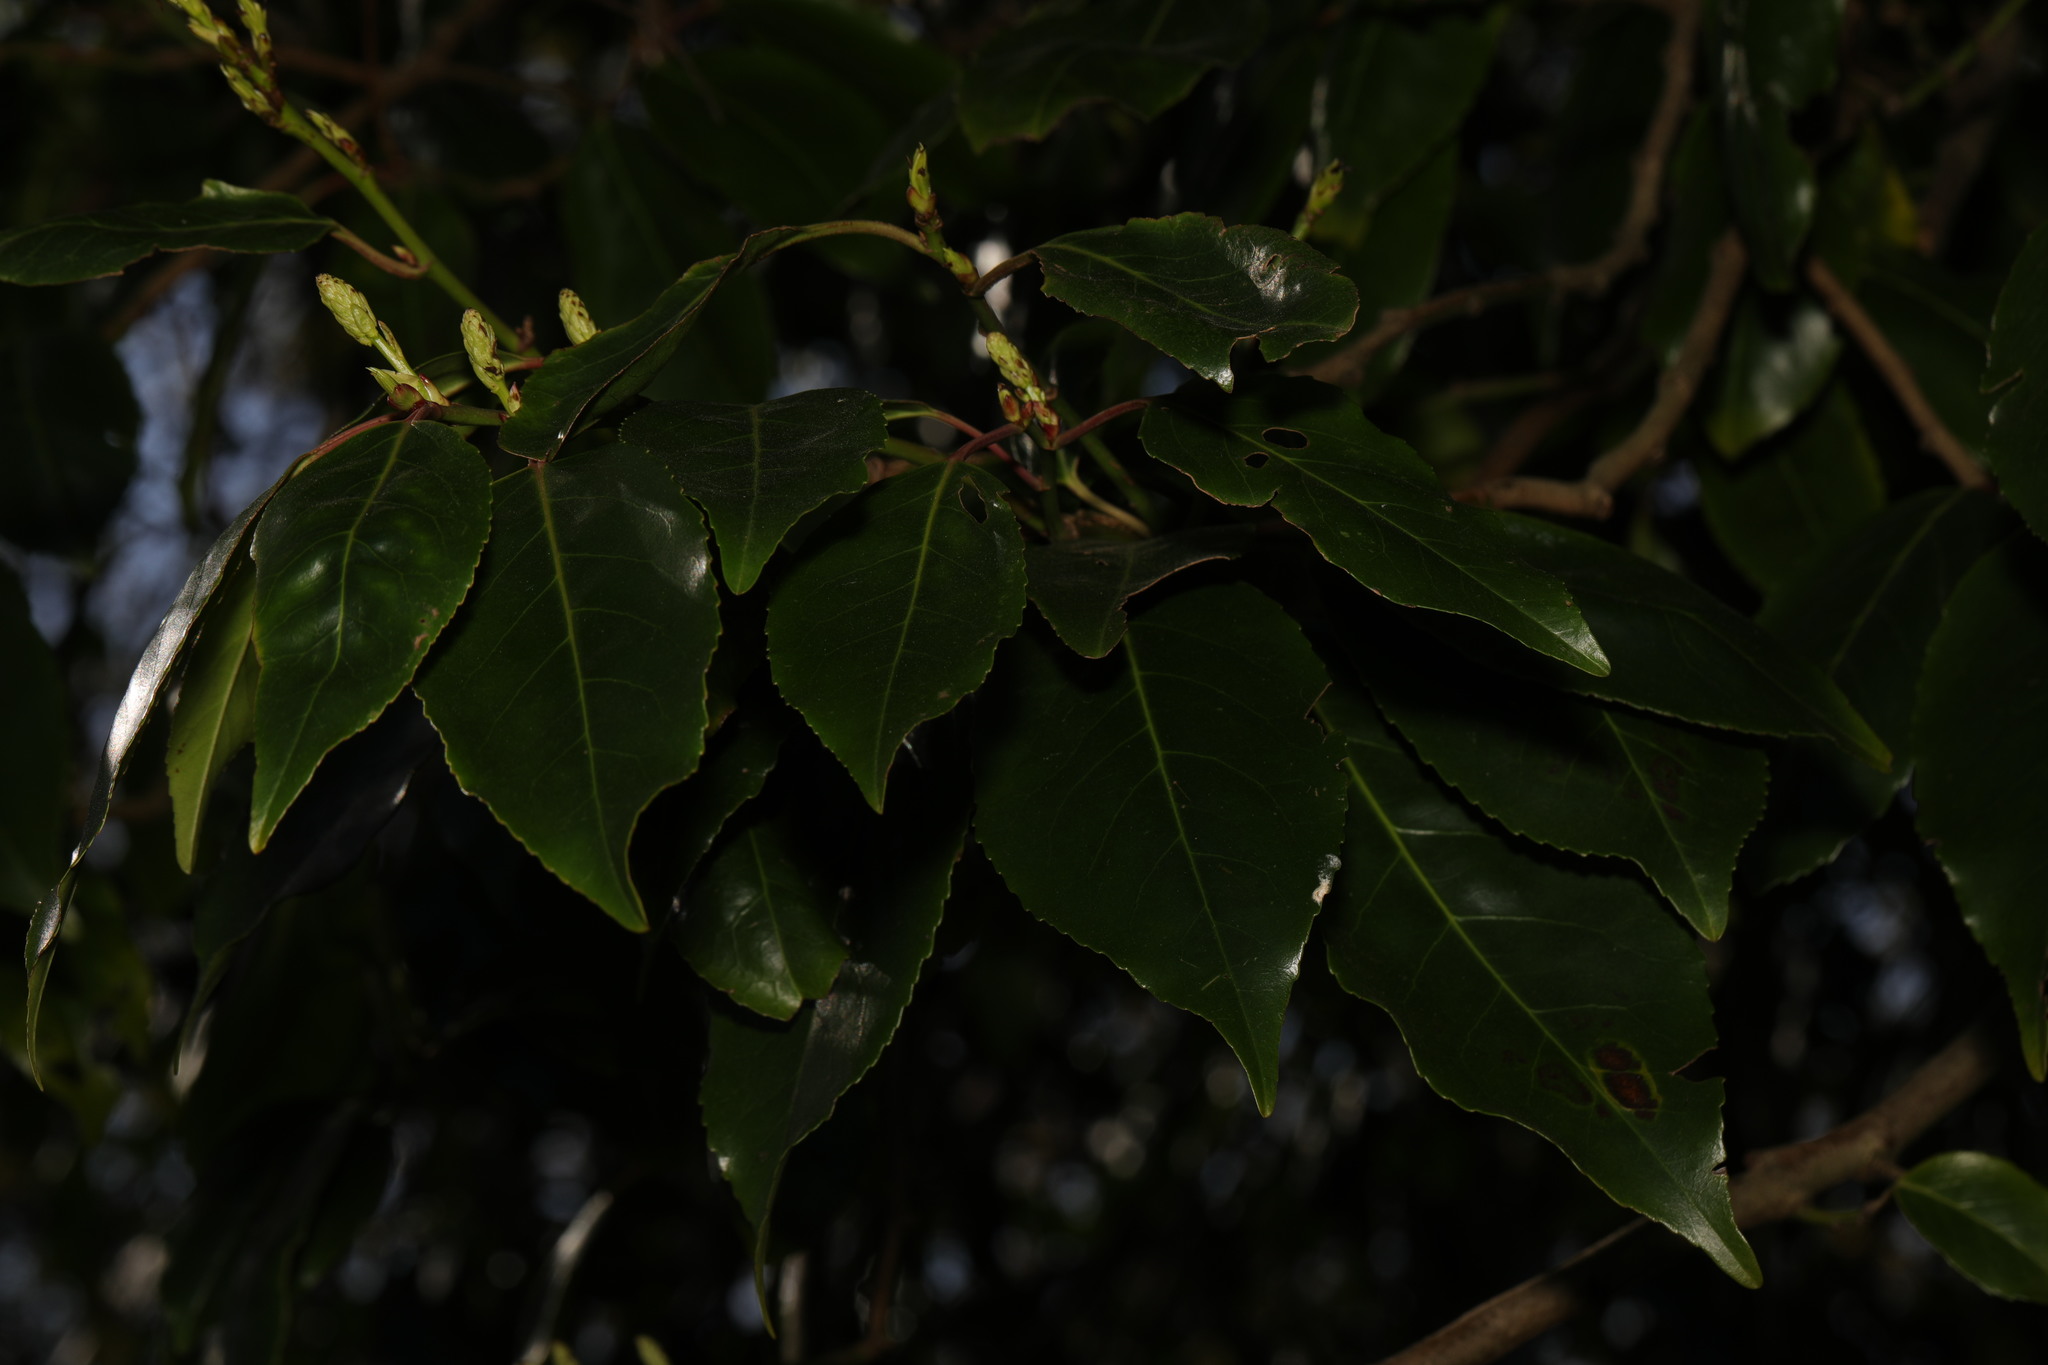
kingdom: Plantae
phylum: Tracheophyta
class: Magnoliopsida
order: Rosales
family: Rosaceae
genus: Prunus
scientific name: Prunus lusitanica
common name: Portugal laurel
